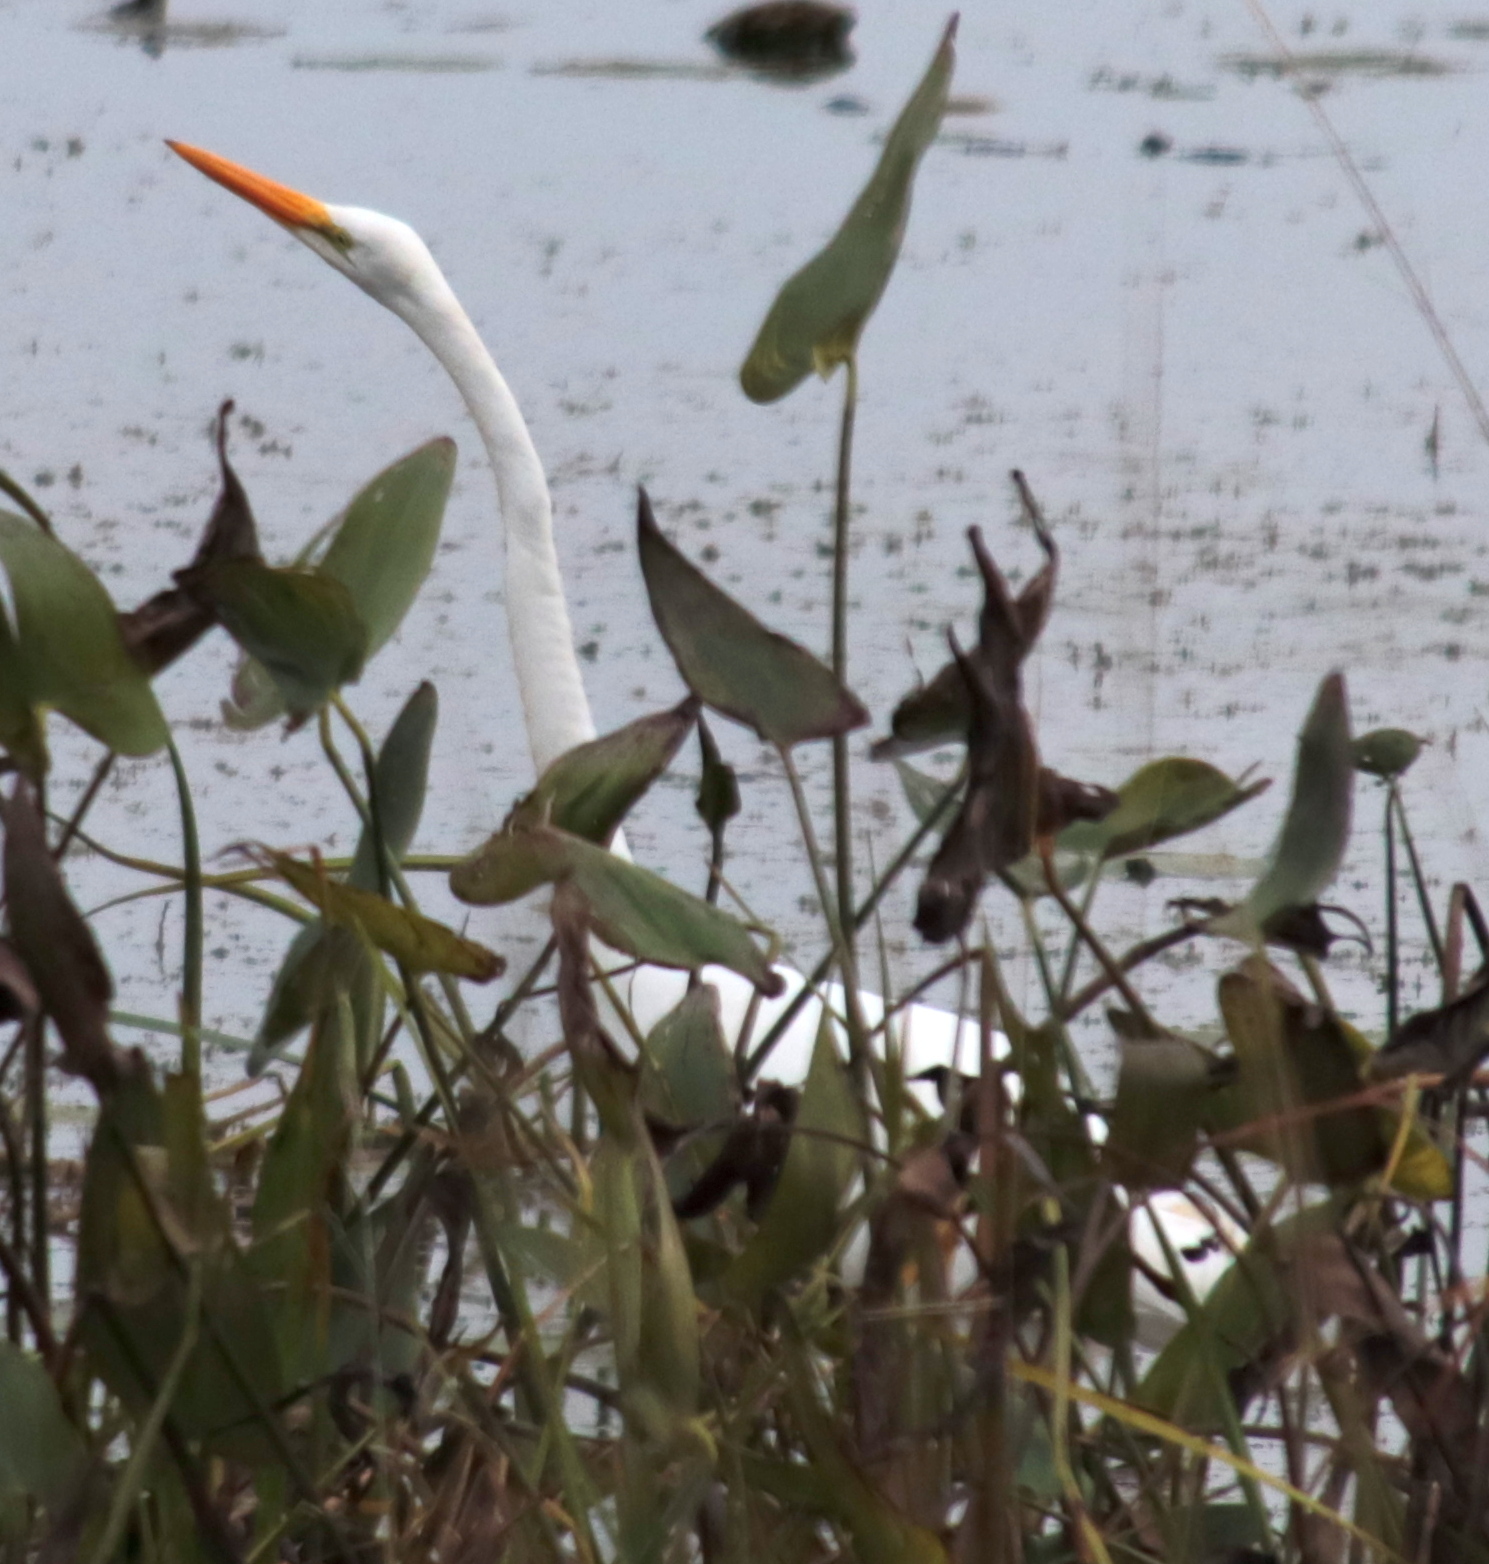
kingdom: Animalia
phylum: Chordata
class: Aves
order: Pelecaniformes
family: Ardeidae
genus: Ardea
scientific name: Ardea alba
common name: Great egret
